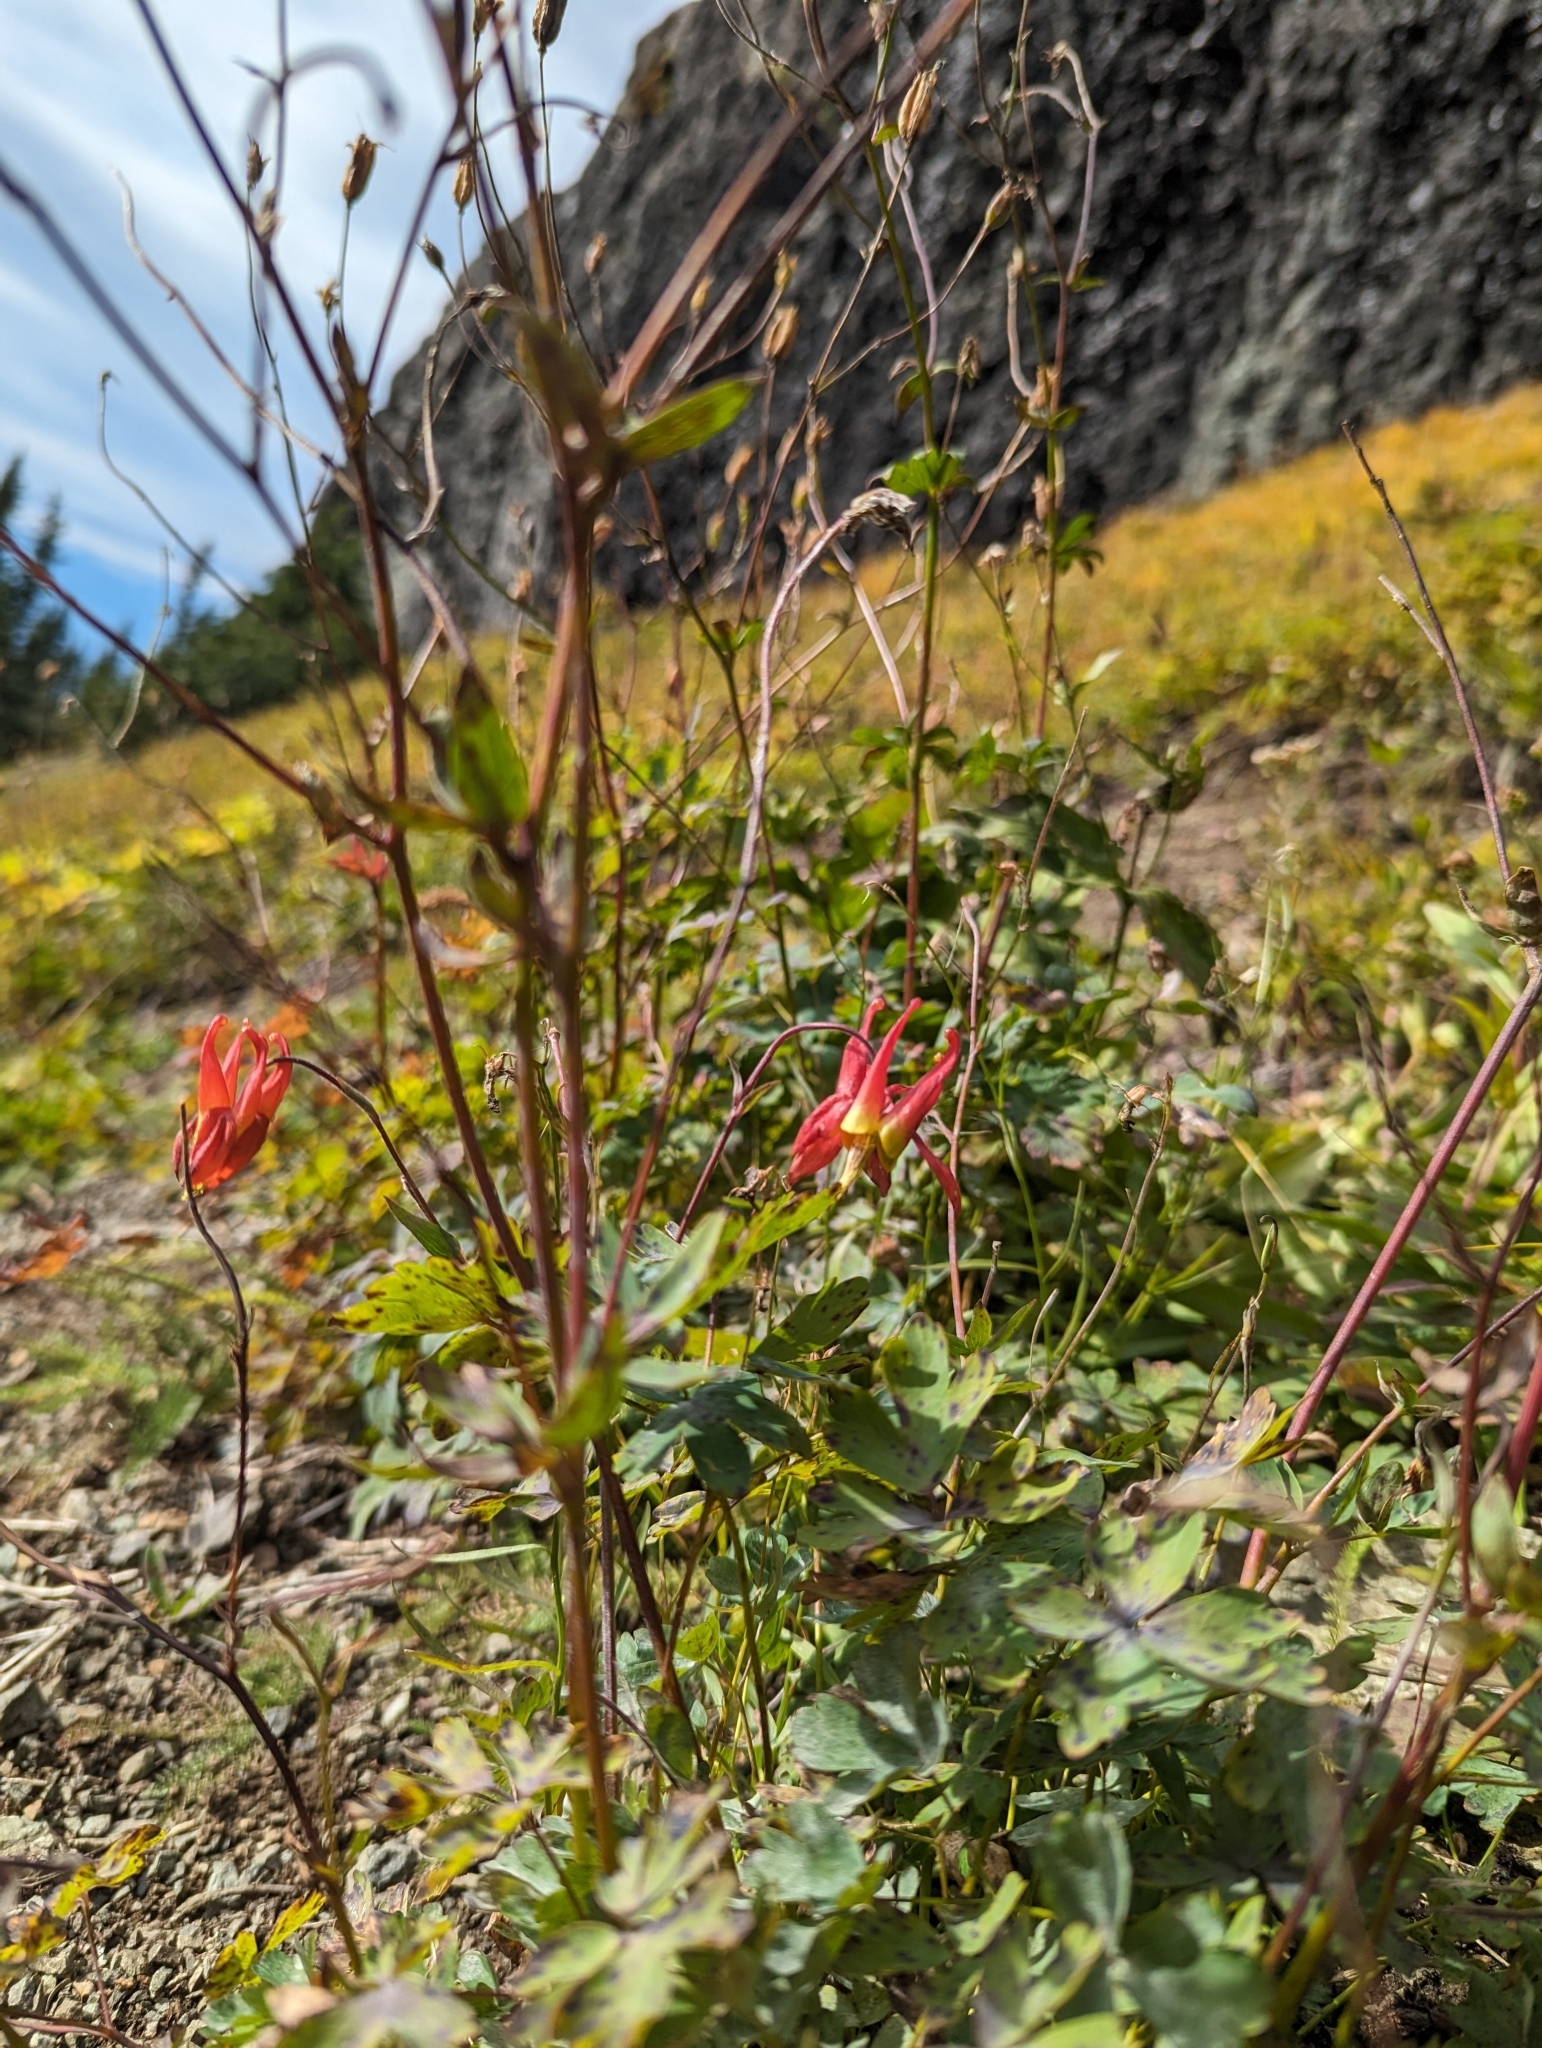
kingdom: Plantae
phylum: Tracheophyta
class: Magnoliopsida
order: Ranunculales
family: Ranunculaceae
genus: Aquilegia
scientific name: Aquilegia formosa
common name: Sitka columbine
